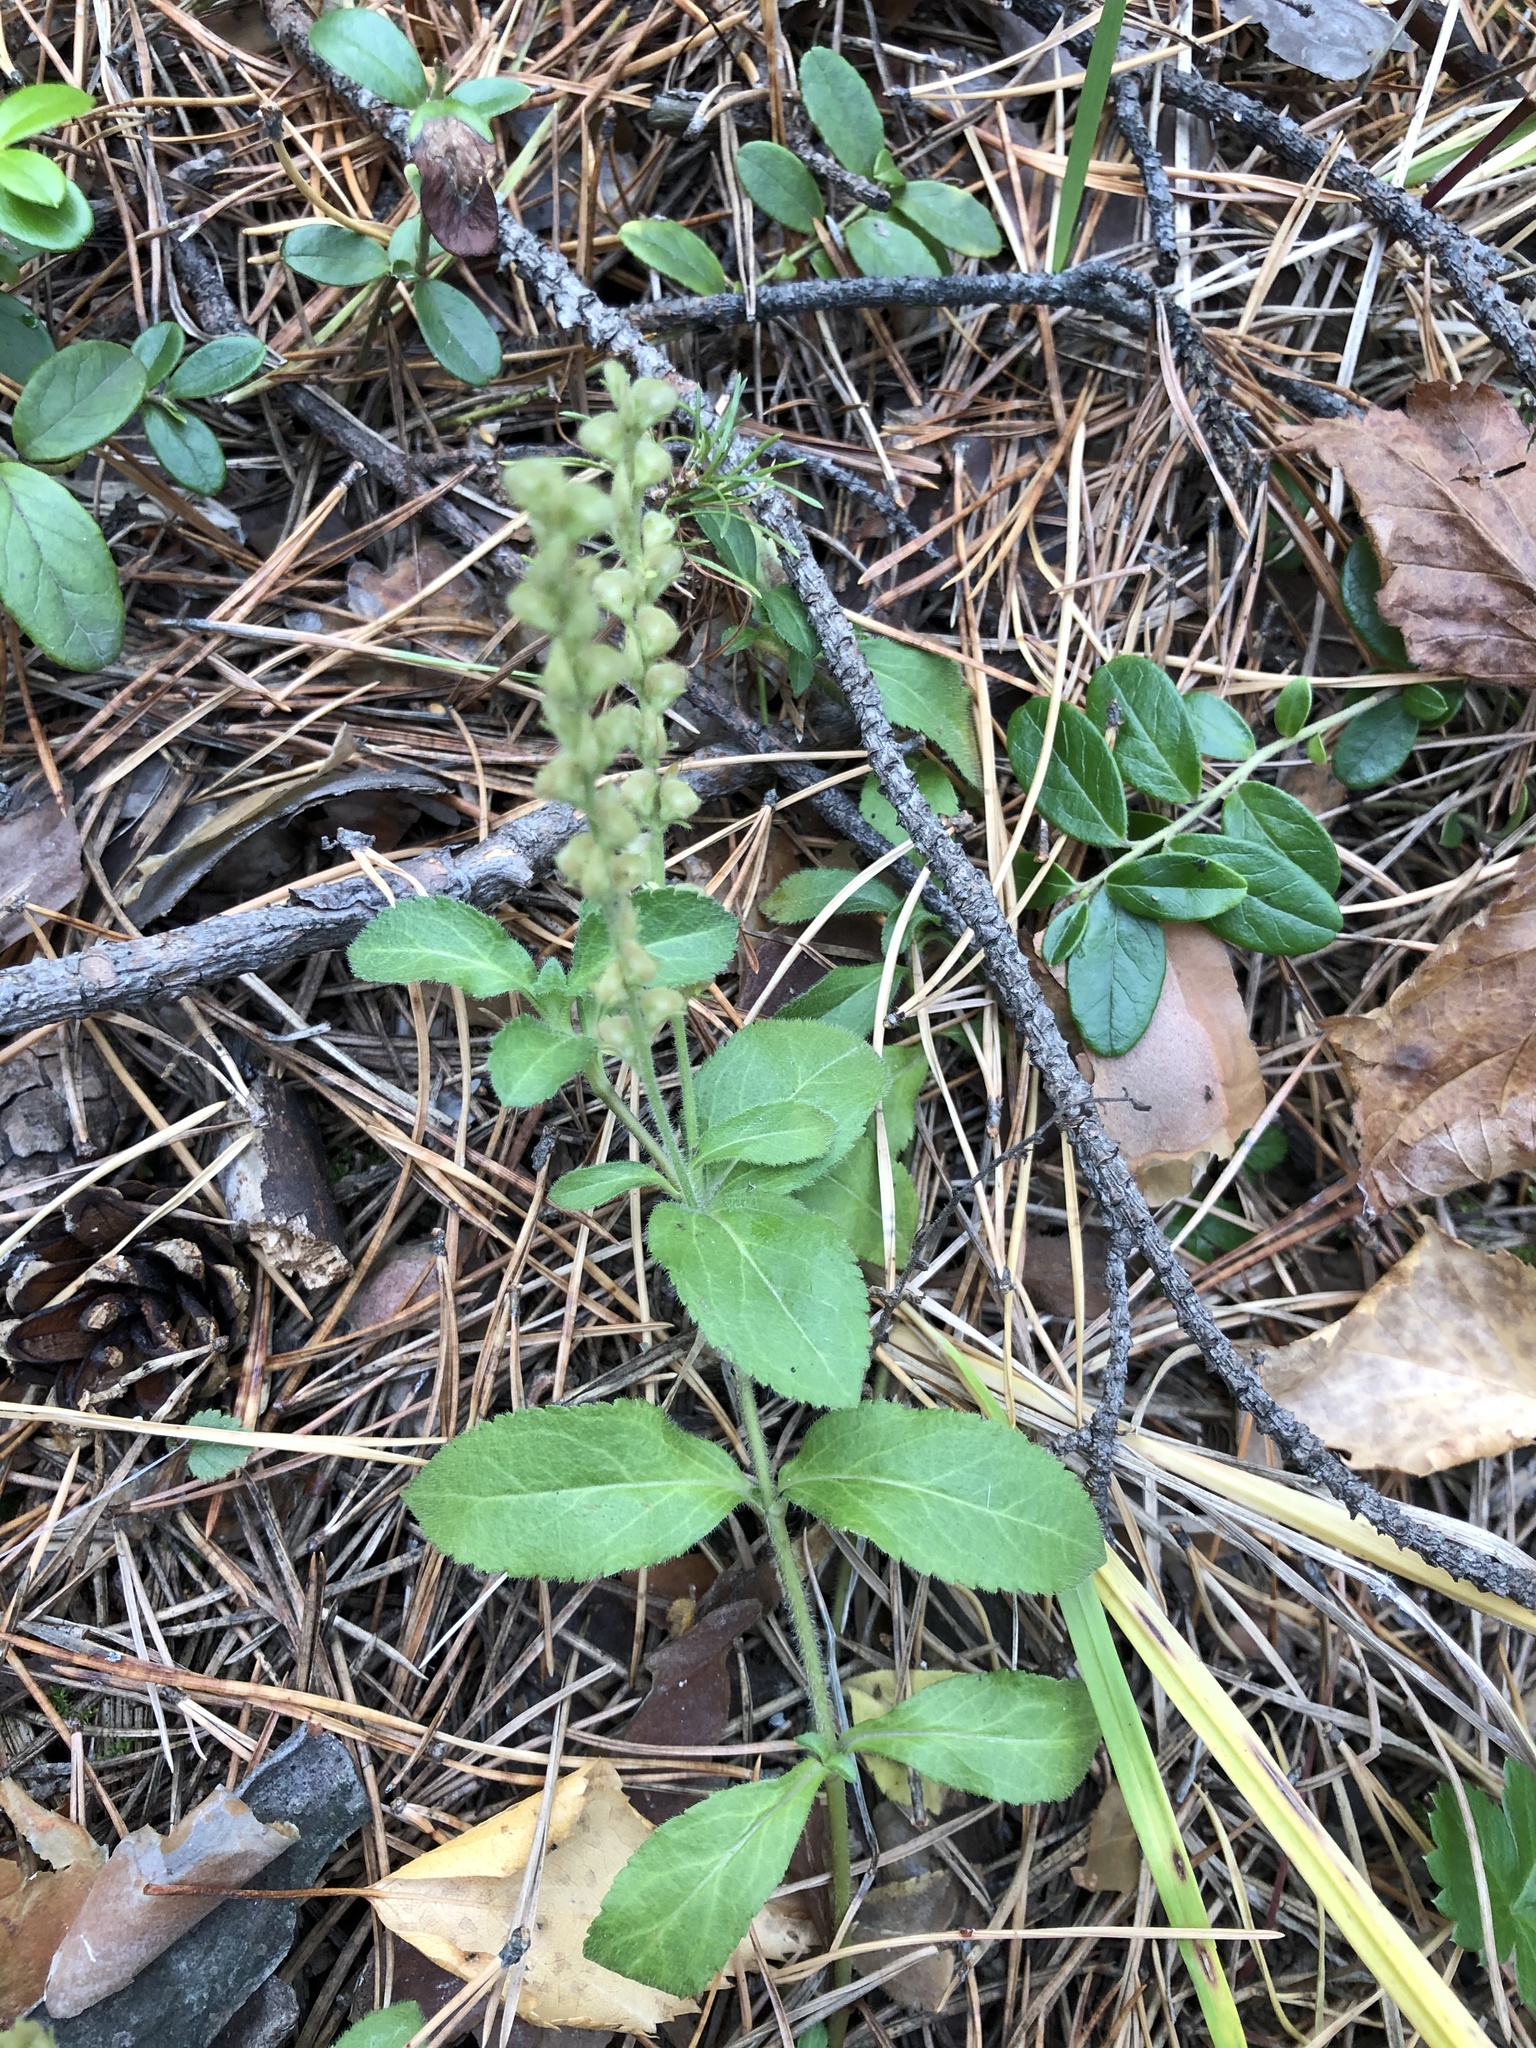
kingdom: Plantae
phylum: Tracheophyta
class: Magnoliopsida
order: Lamiales
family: Plantaginaceae
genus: Veronica
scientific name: Veronica officinalis
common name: Common speedwell
